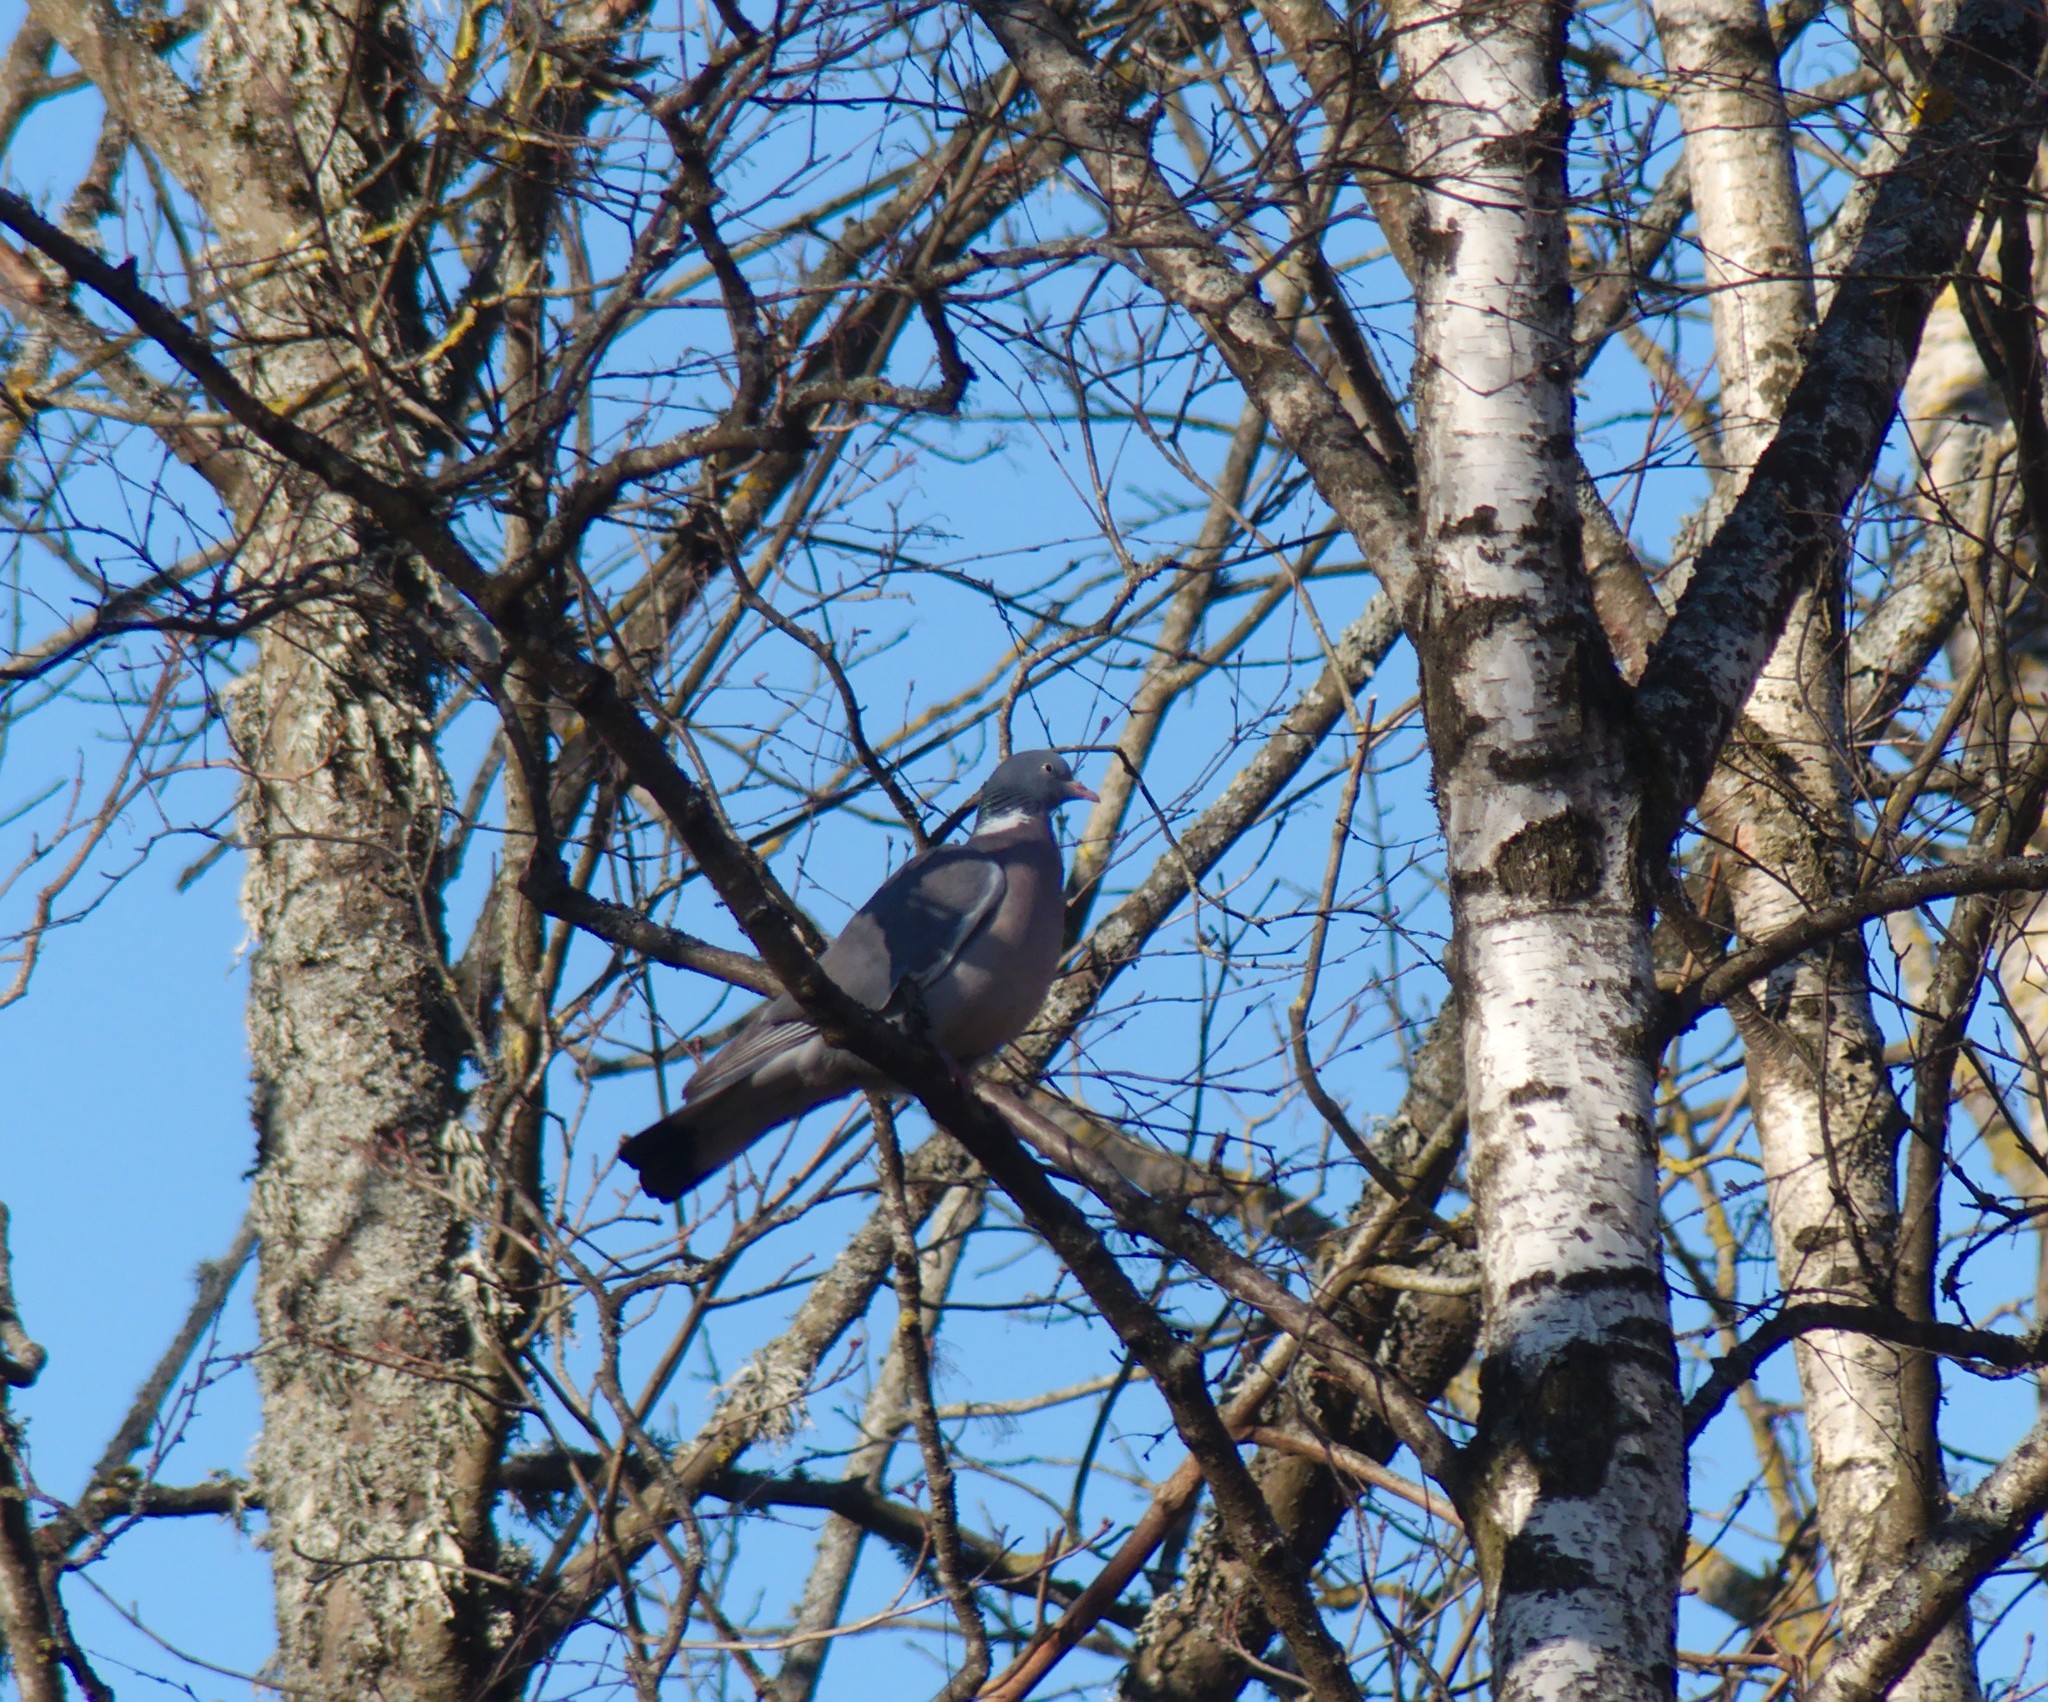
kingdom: Animalia
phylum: Chordata
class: Aves
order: Columbiformes
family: Columbidae
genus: Columba
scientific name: Columba palumbus
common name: Common wood pigeon
